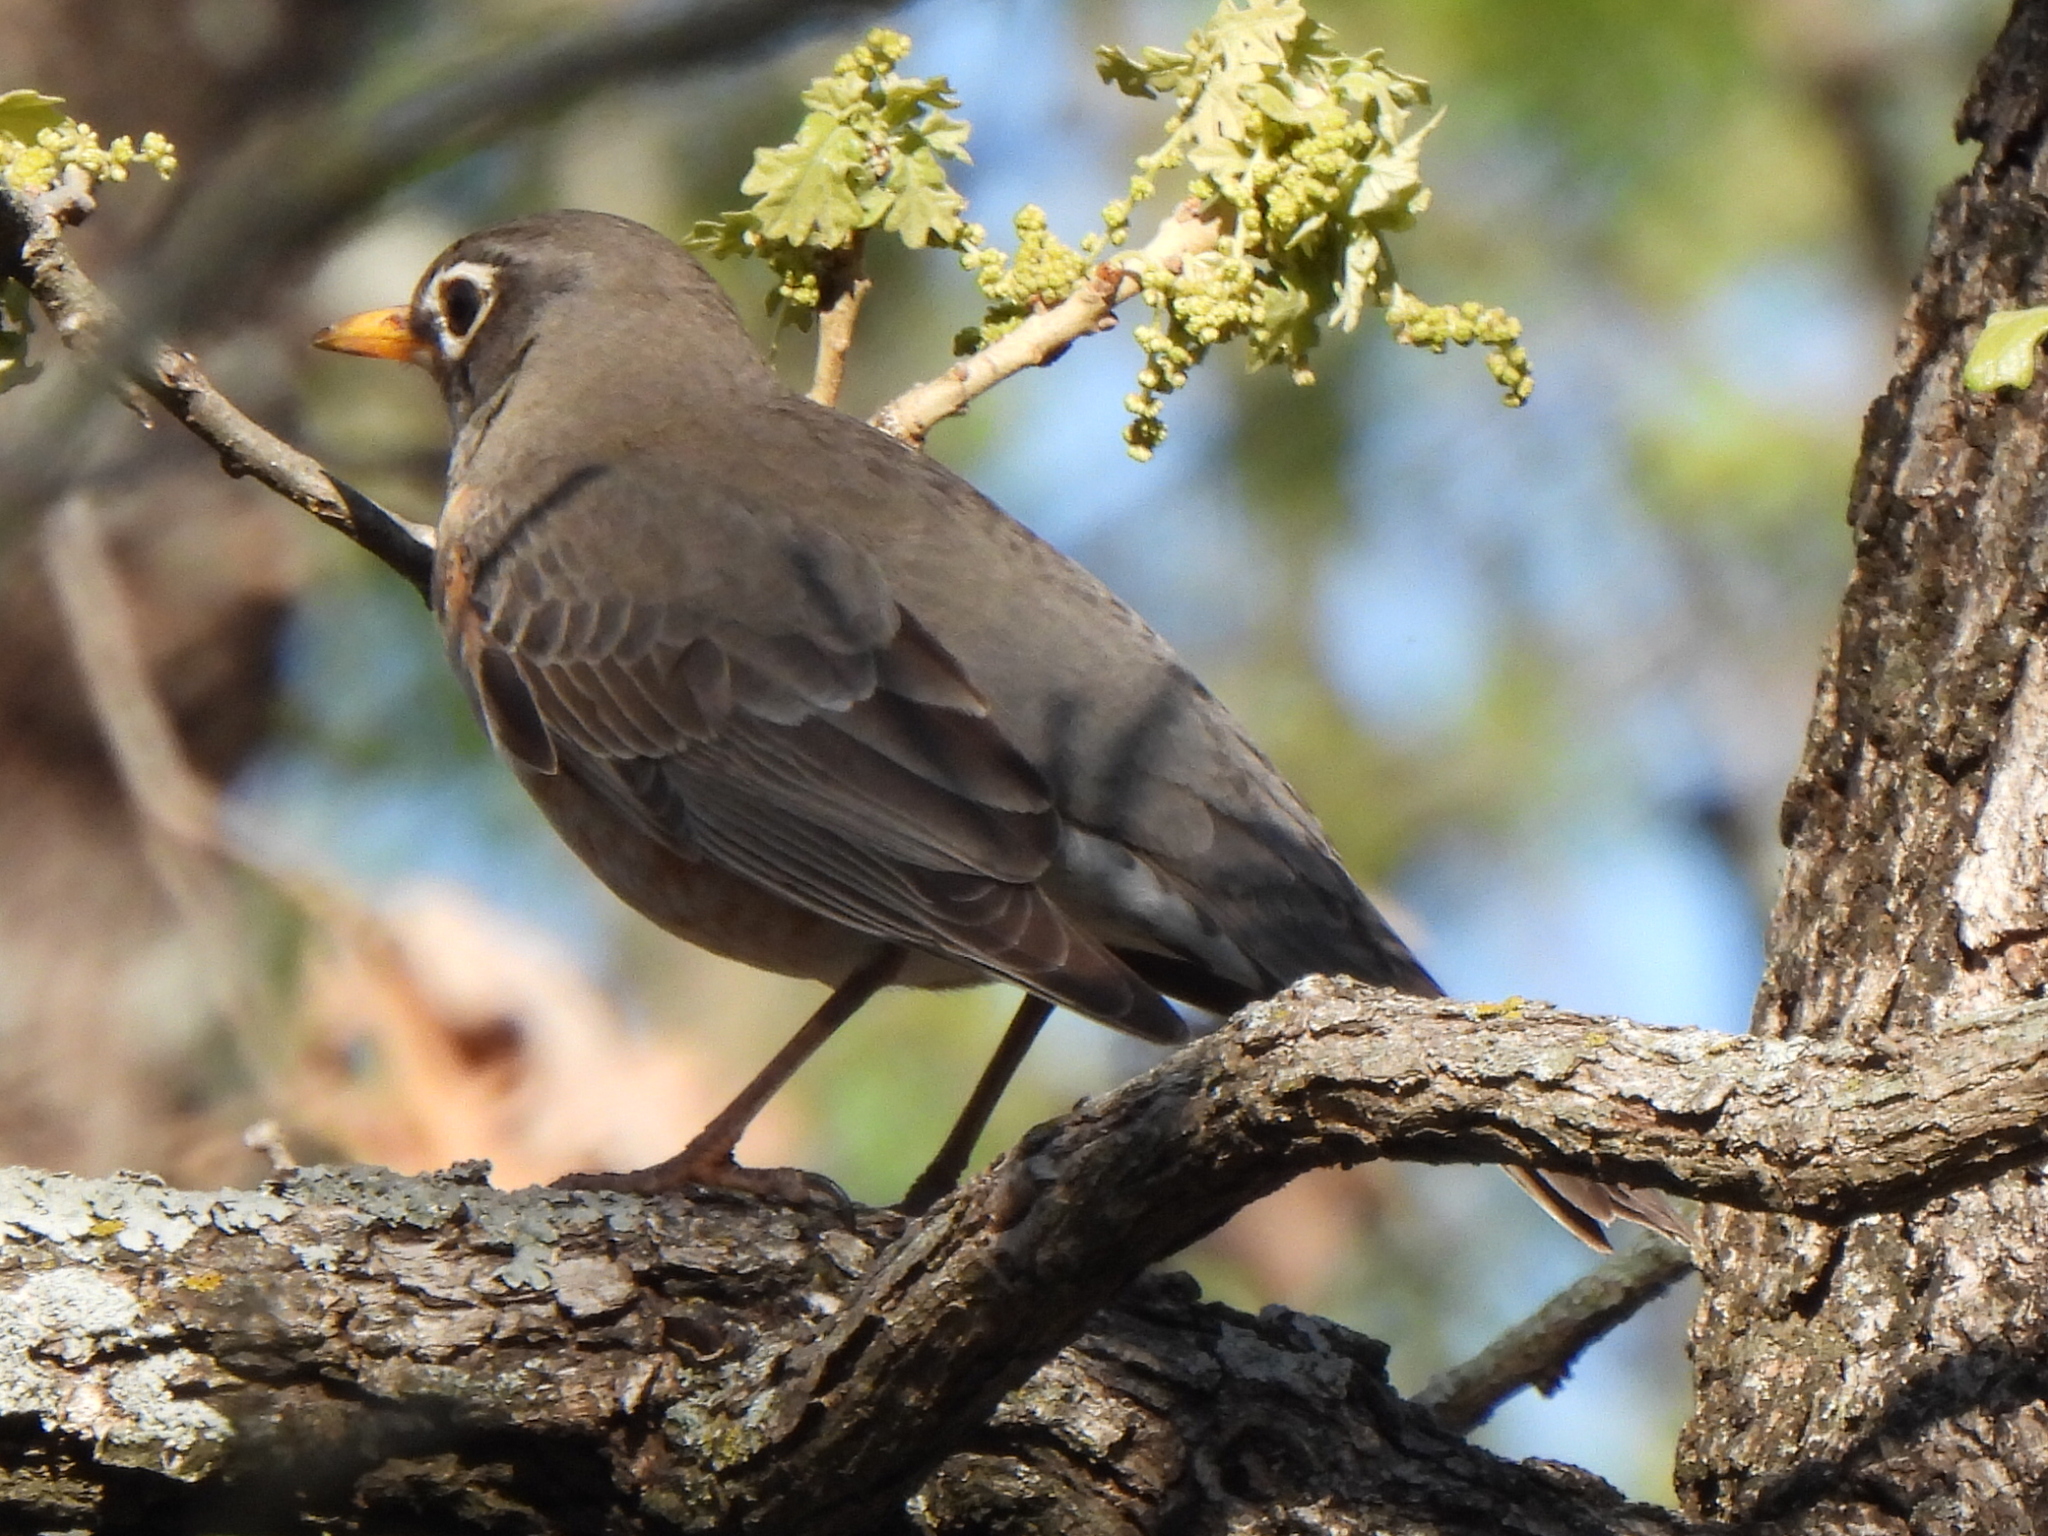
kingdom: Animalia
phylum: Chordata
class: Aves
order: Passeriformes
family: Turdidae
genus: Turdus
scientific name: Turdus migratorius
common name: American robin
